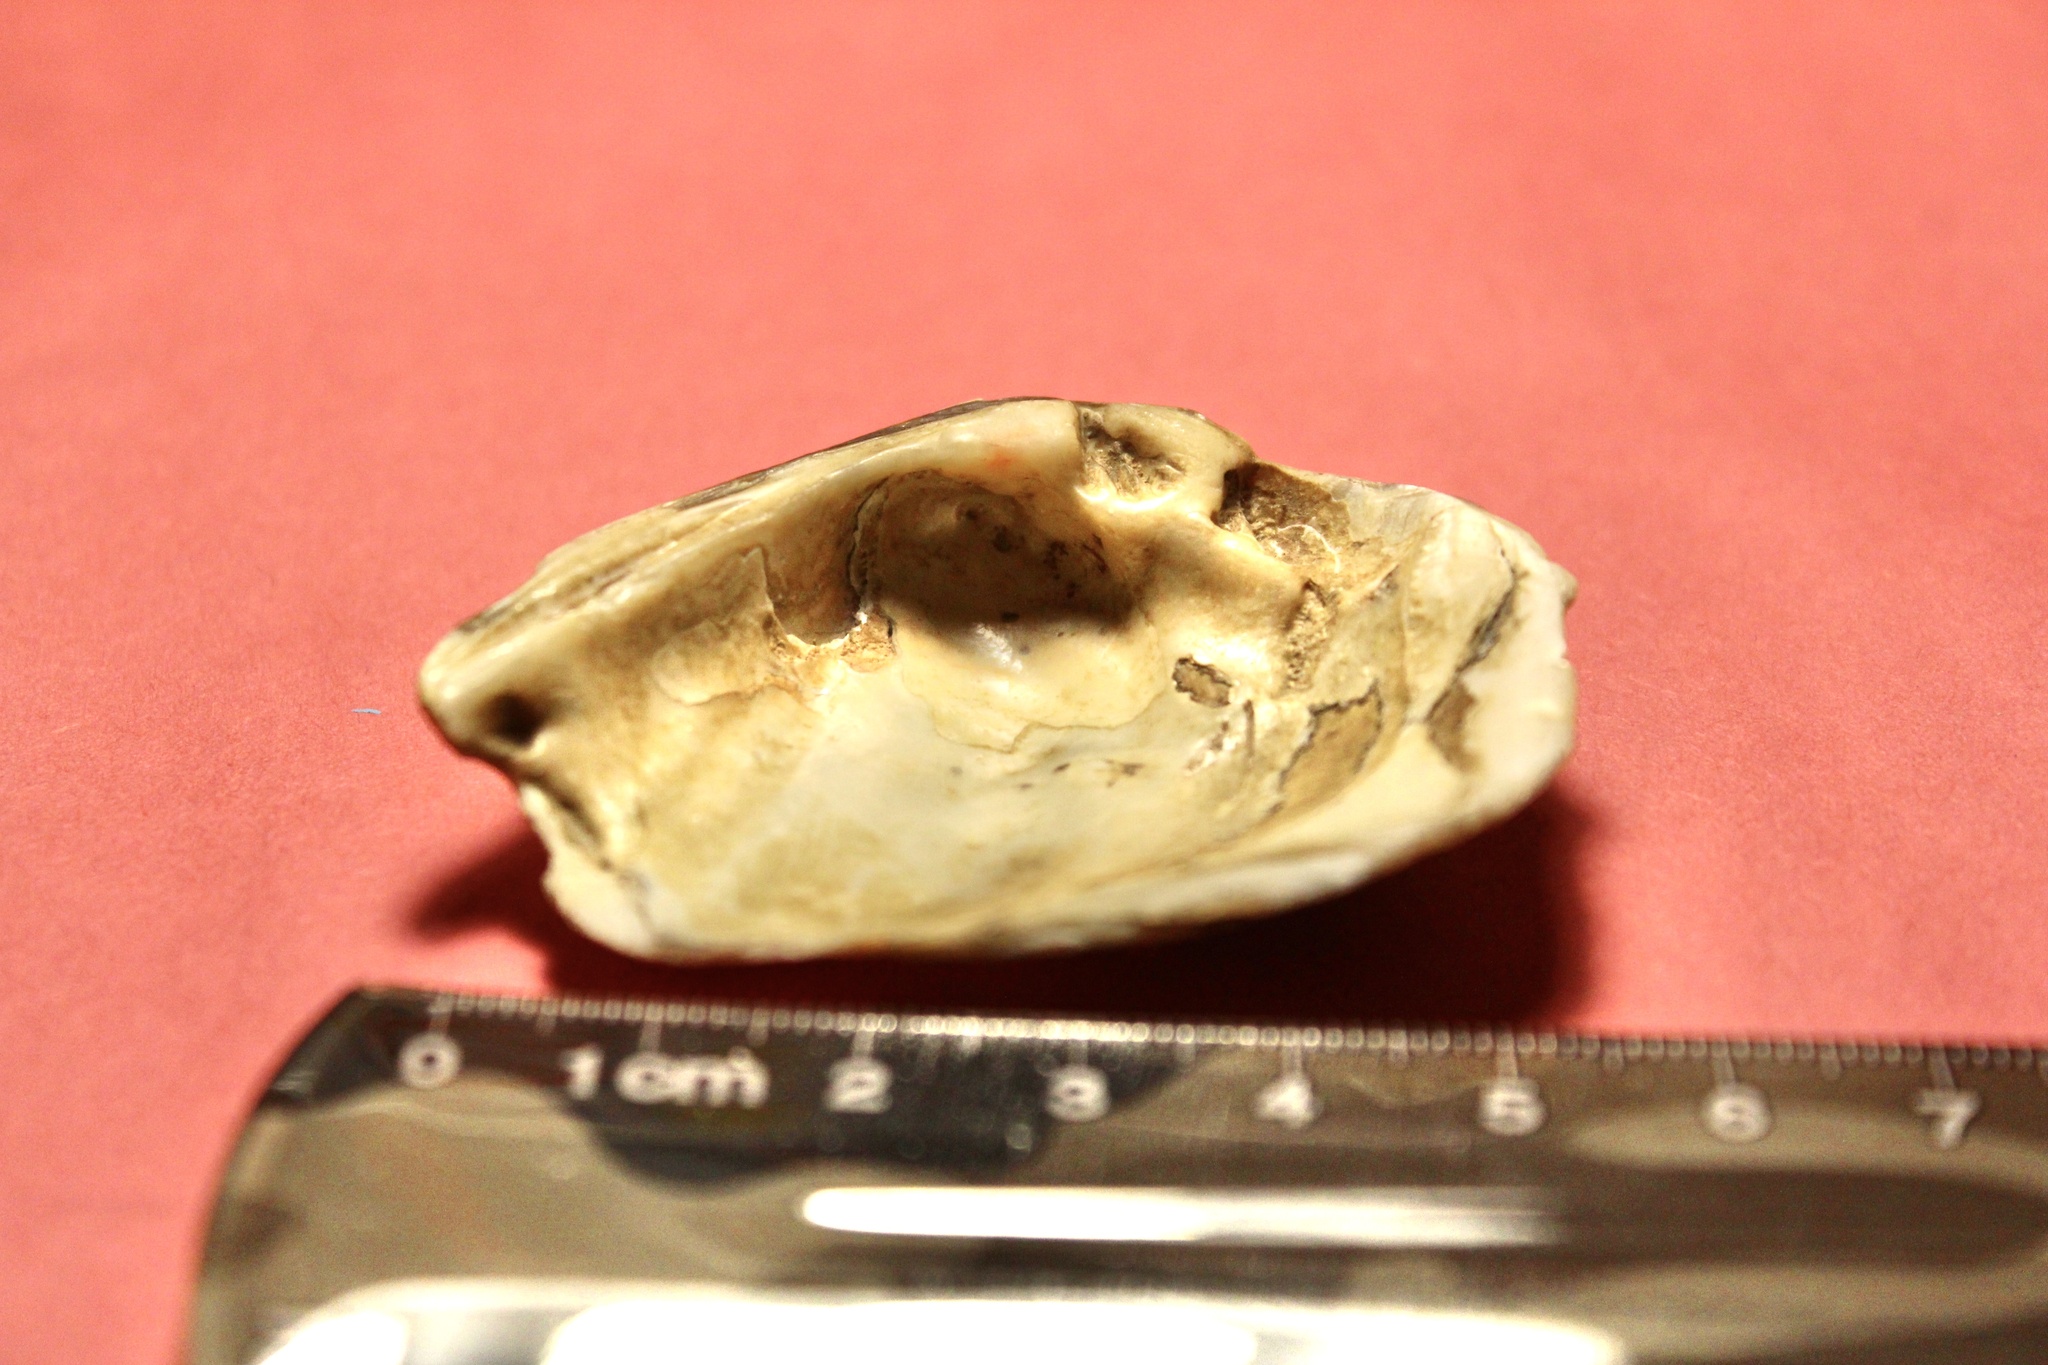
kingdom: Animalia
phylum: Mollusca
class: Bivalvia
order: Unionida
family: Unionidae
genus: Pleurobema
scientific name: Pleurobema sintoxia
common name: Round pigtoe
